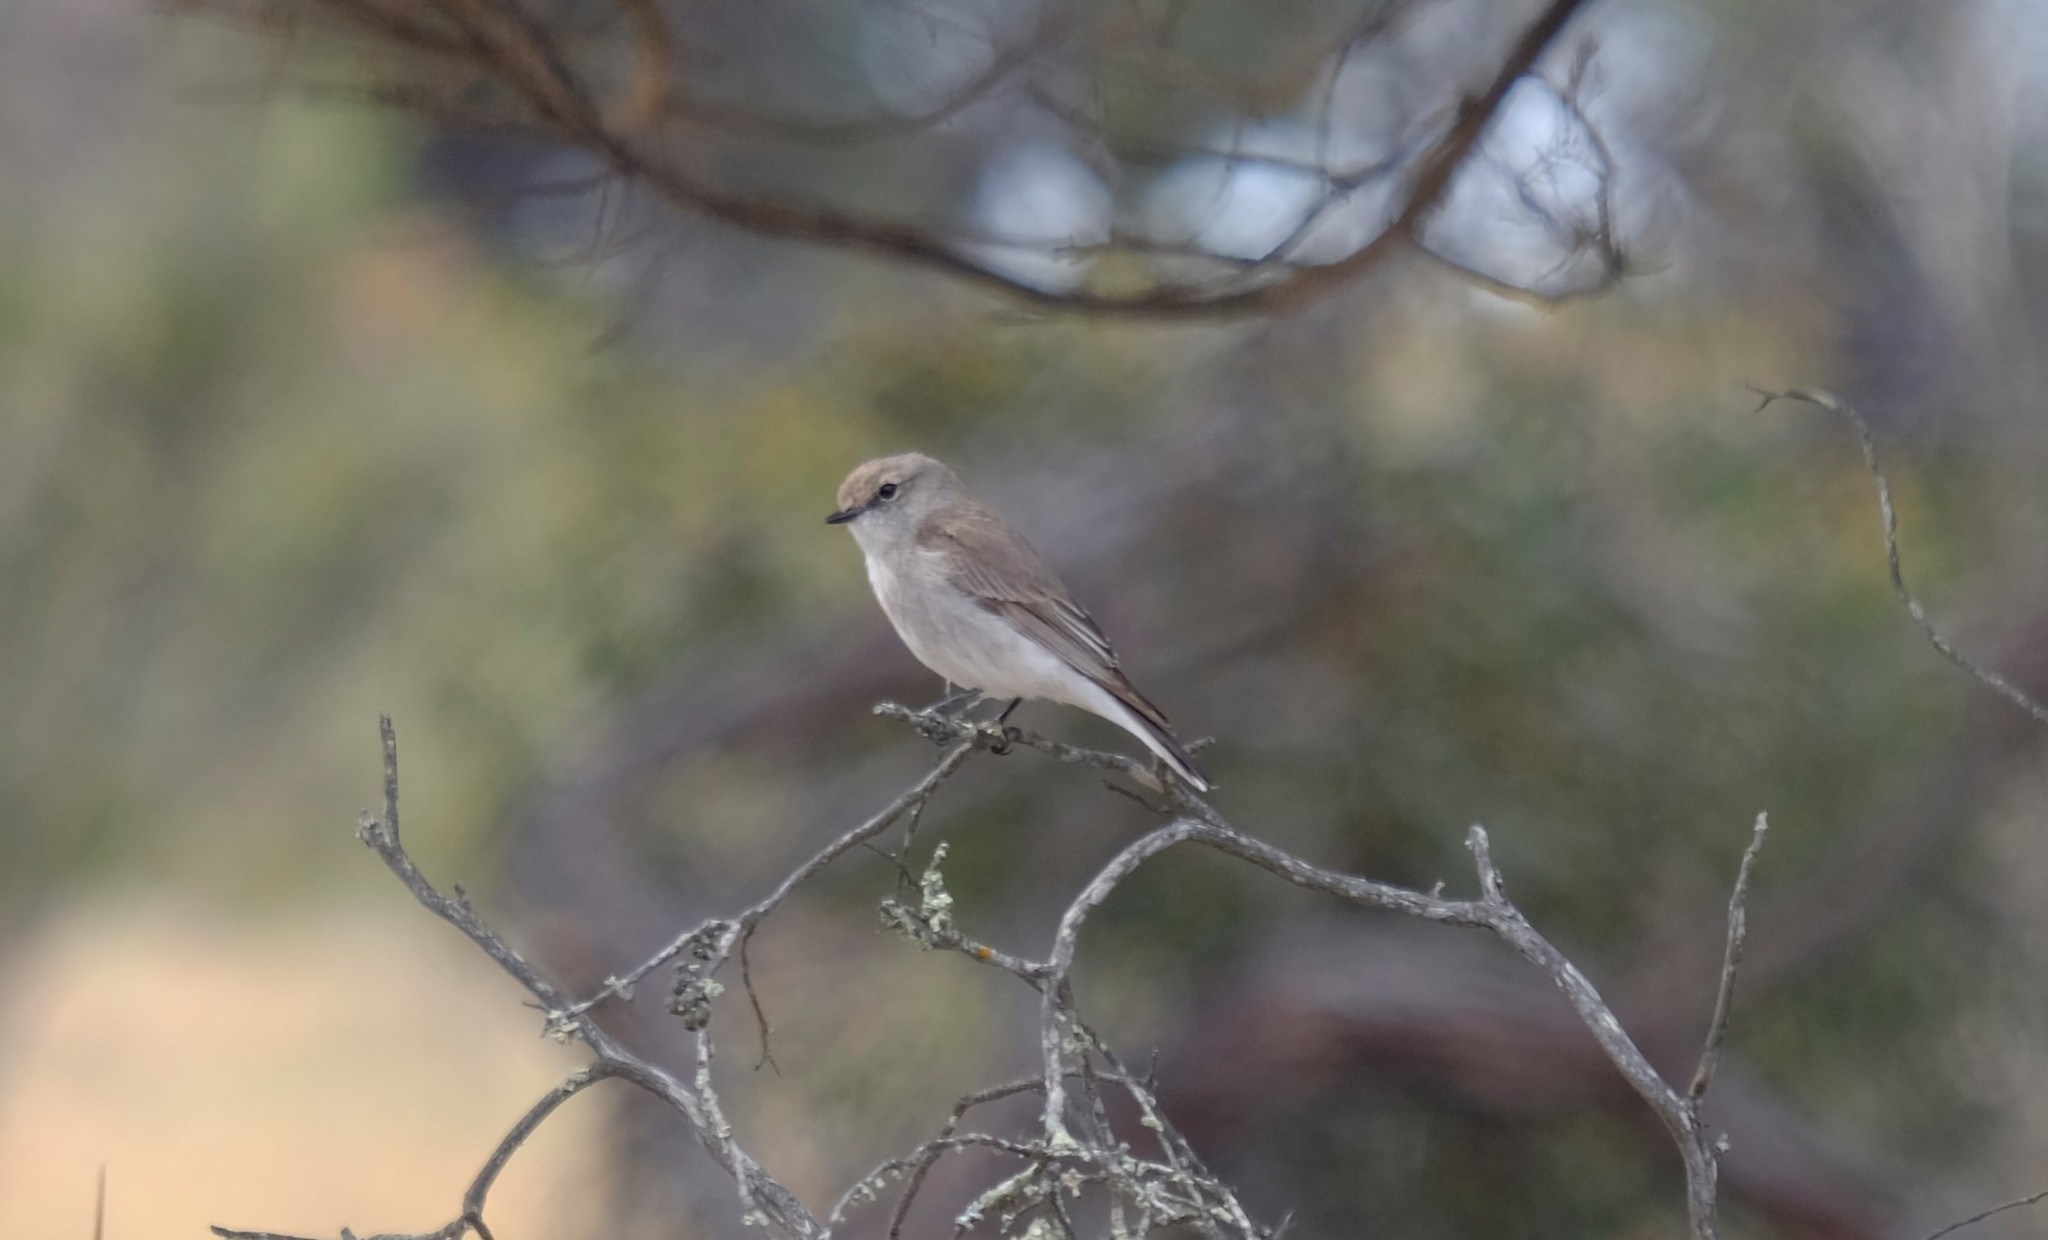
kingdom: Animalia
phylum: Chordata
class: Aves
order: Passeriformes
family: Petroicidae
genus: Microeca
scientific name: Microeca fascinans
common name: Jacky winter
